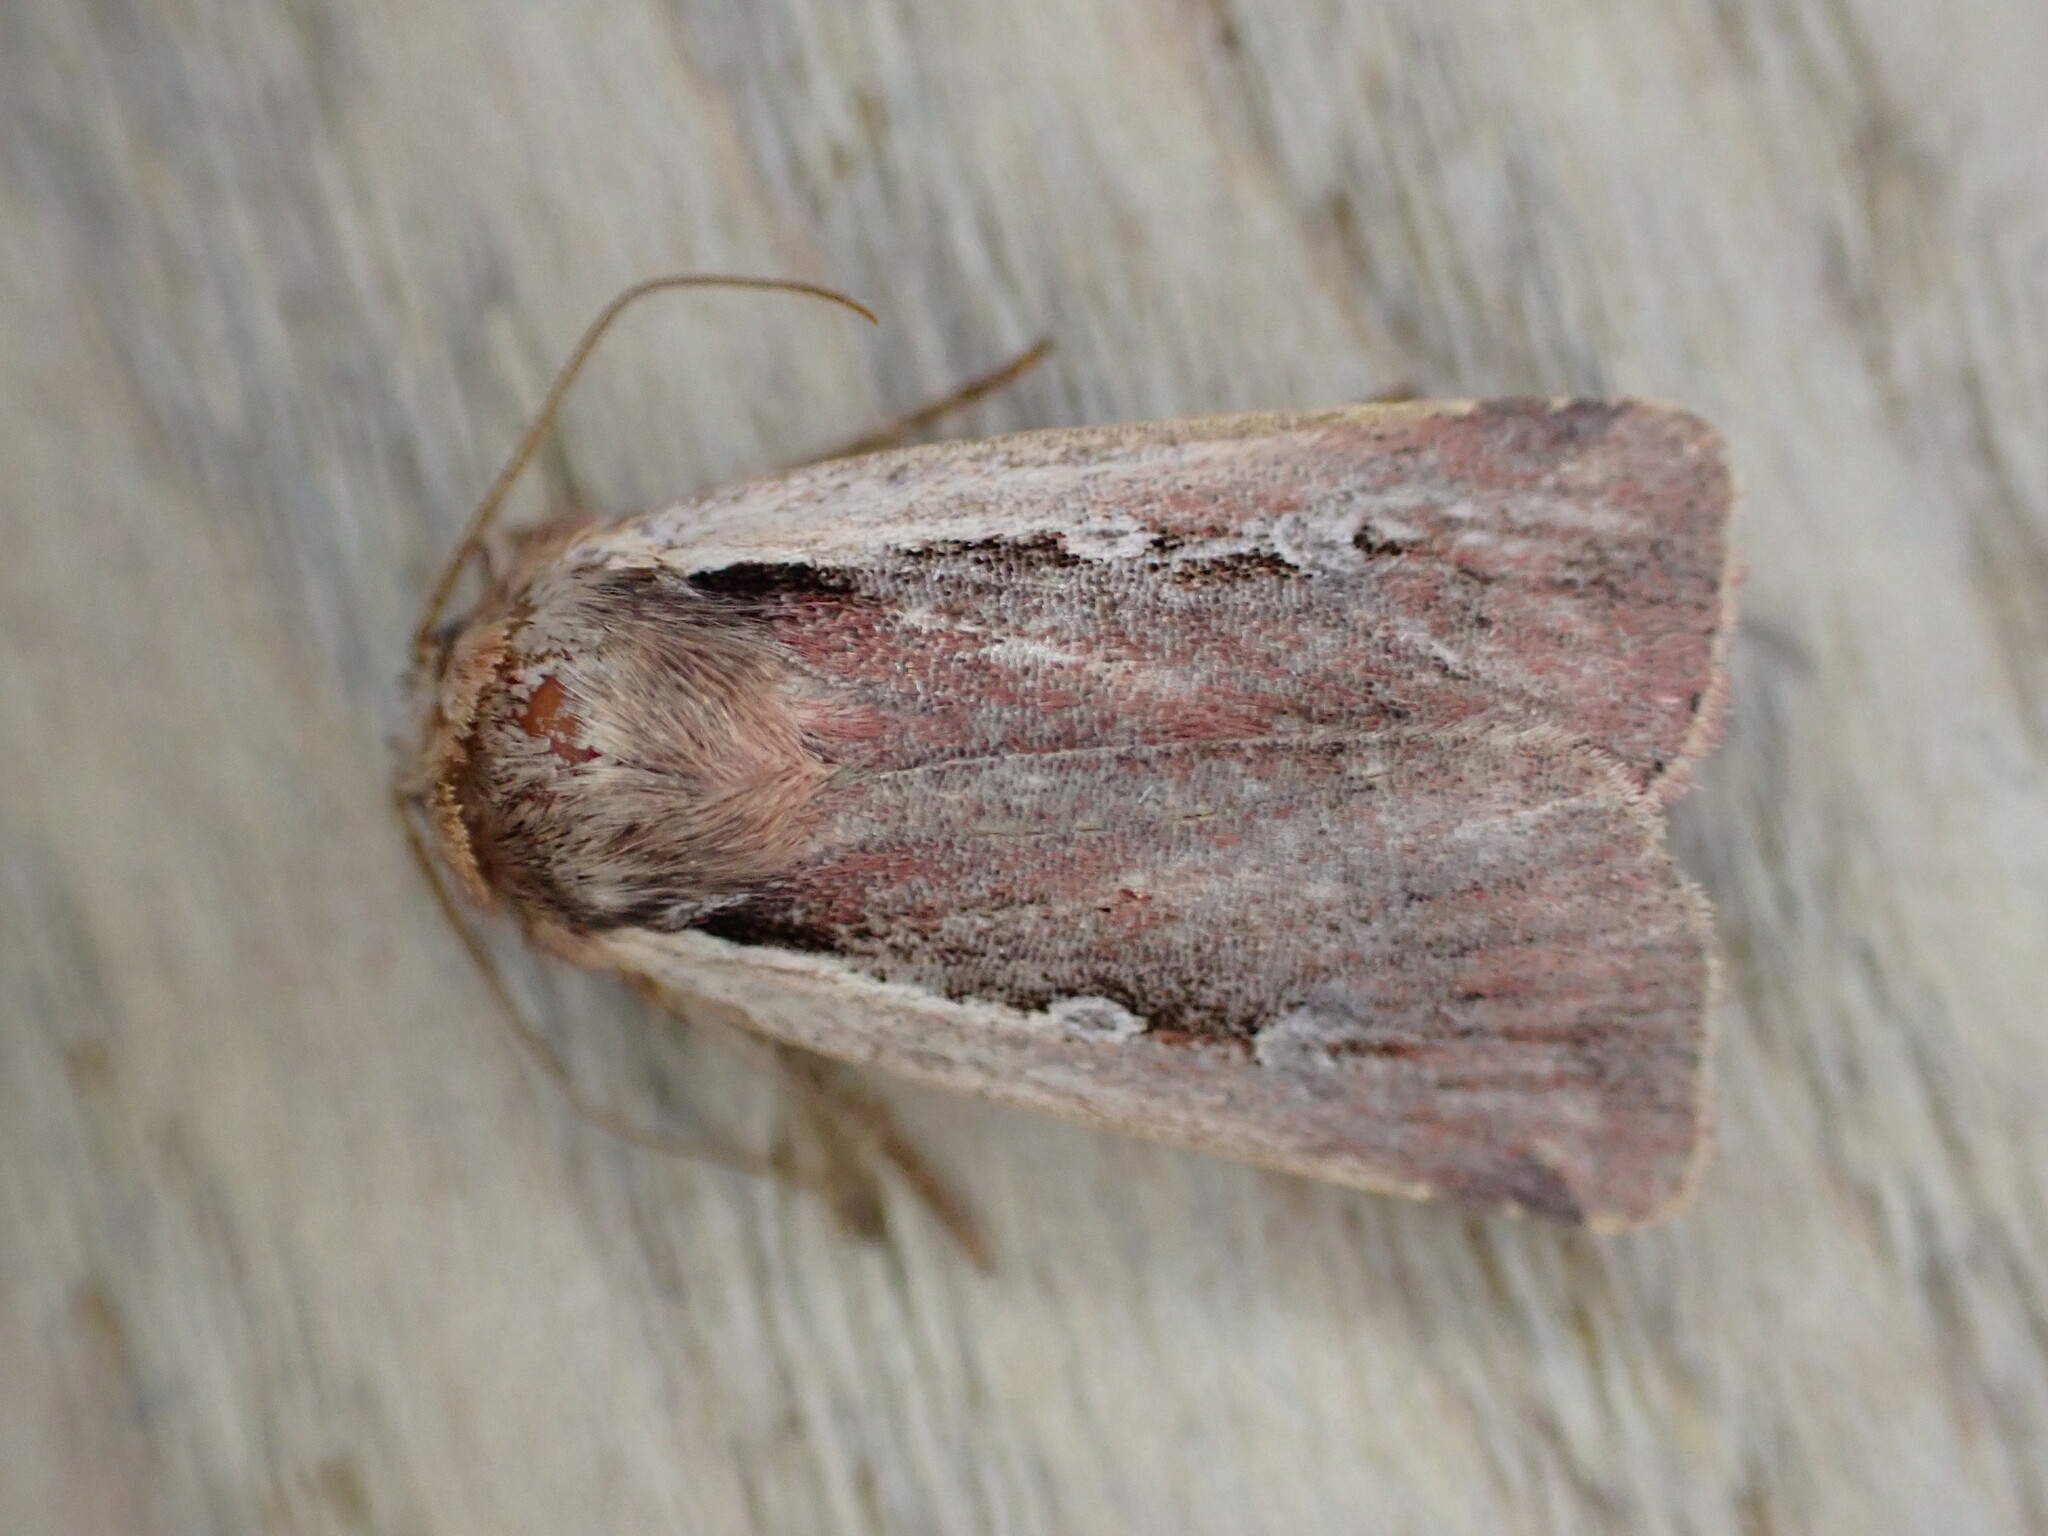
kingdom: Animalia
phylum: Arthropoda
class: Insecta
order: Lepidoptera
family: Noctuidae
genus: Ochropleura
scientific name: Ochropleura plecta
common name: Flame shoulder
